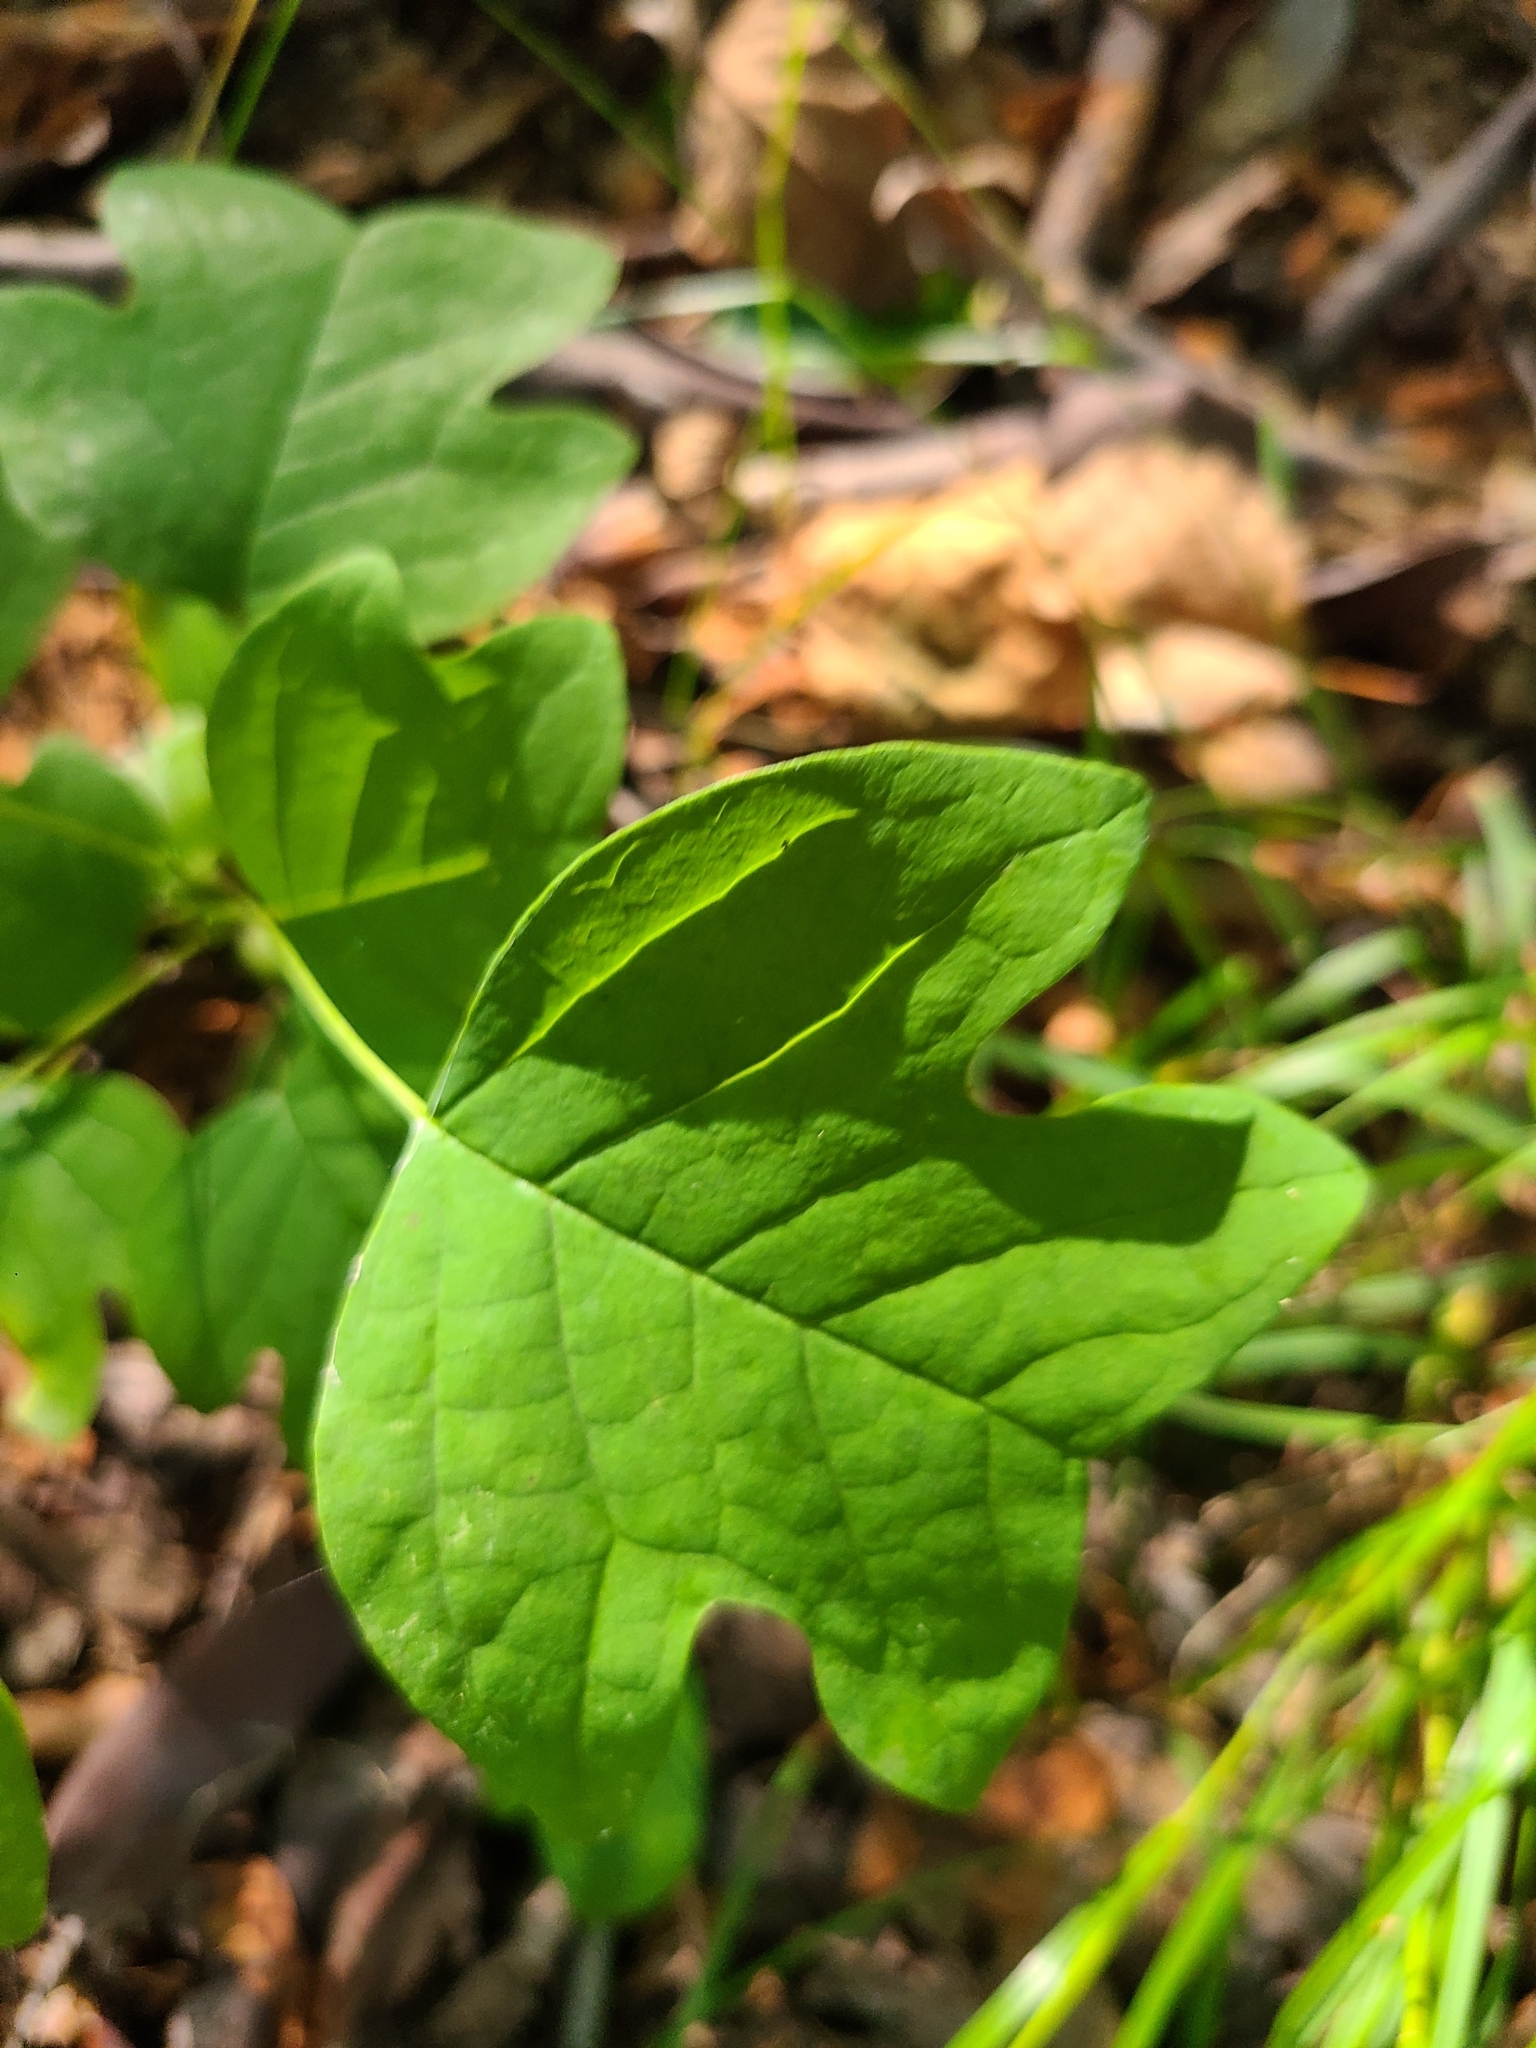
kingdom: Plantae
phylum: Tracheophyta
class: Magnoliopsida
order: Magnoliales
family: Magnoliaceae
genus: Liriodendron
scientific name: Liriodendron tulipifera
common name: Tulip tree
